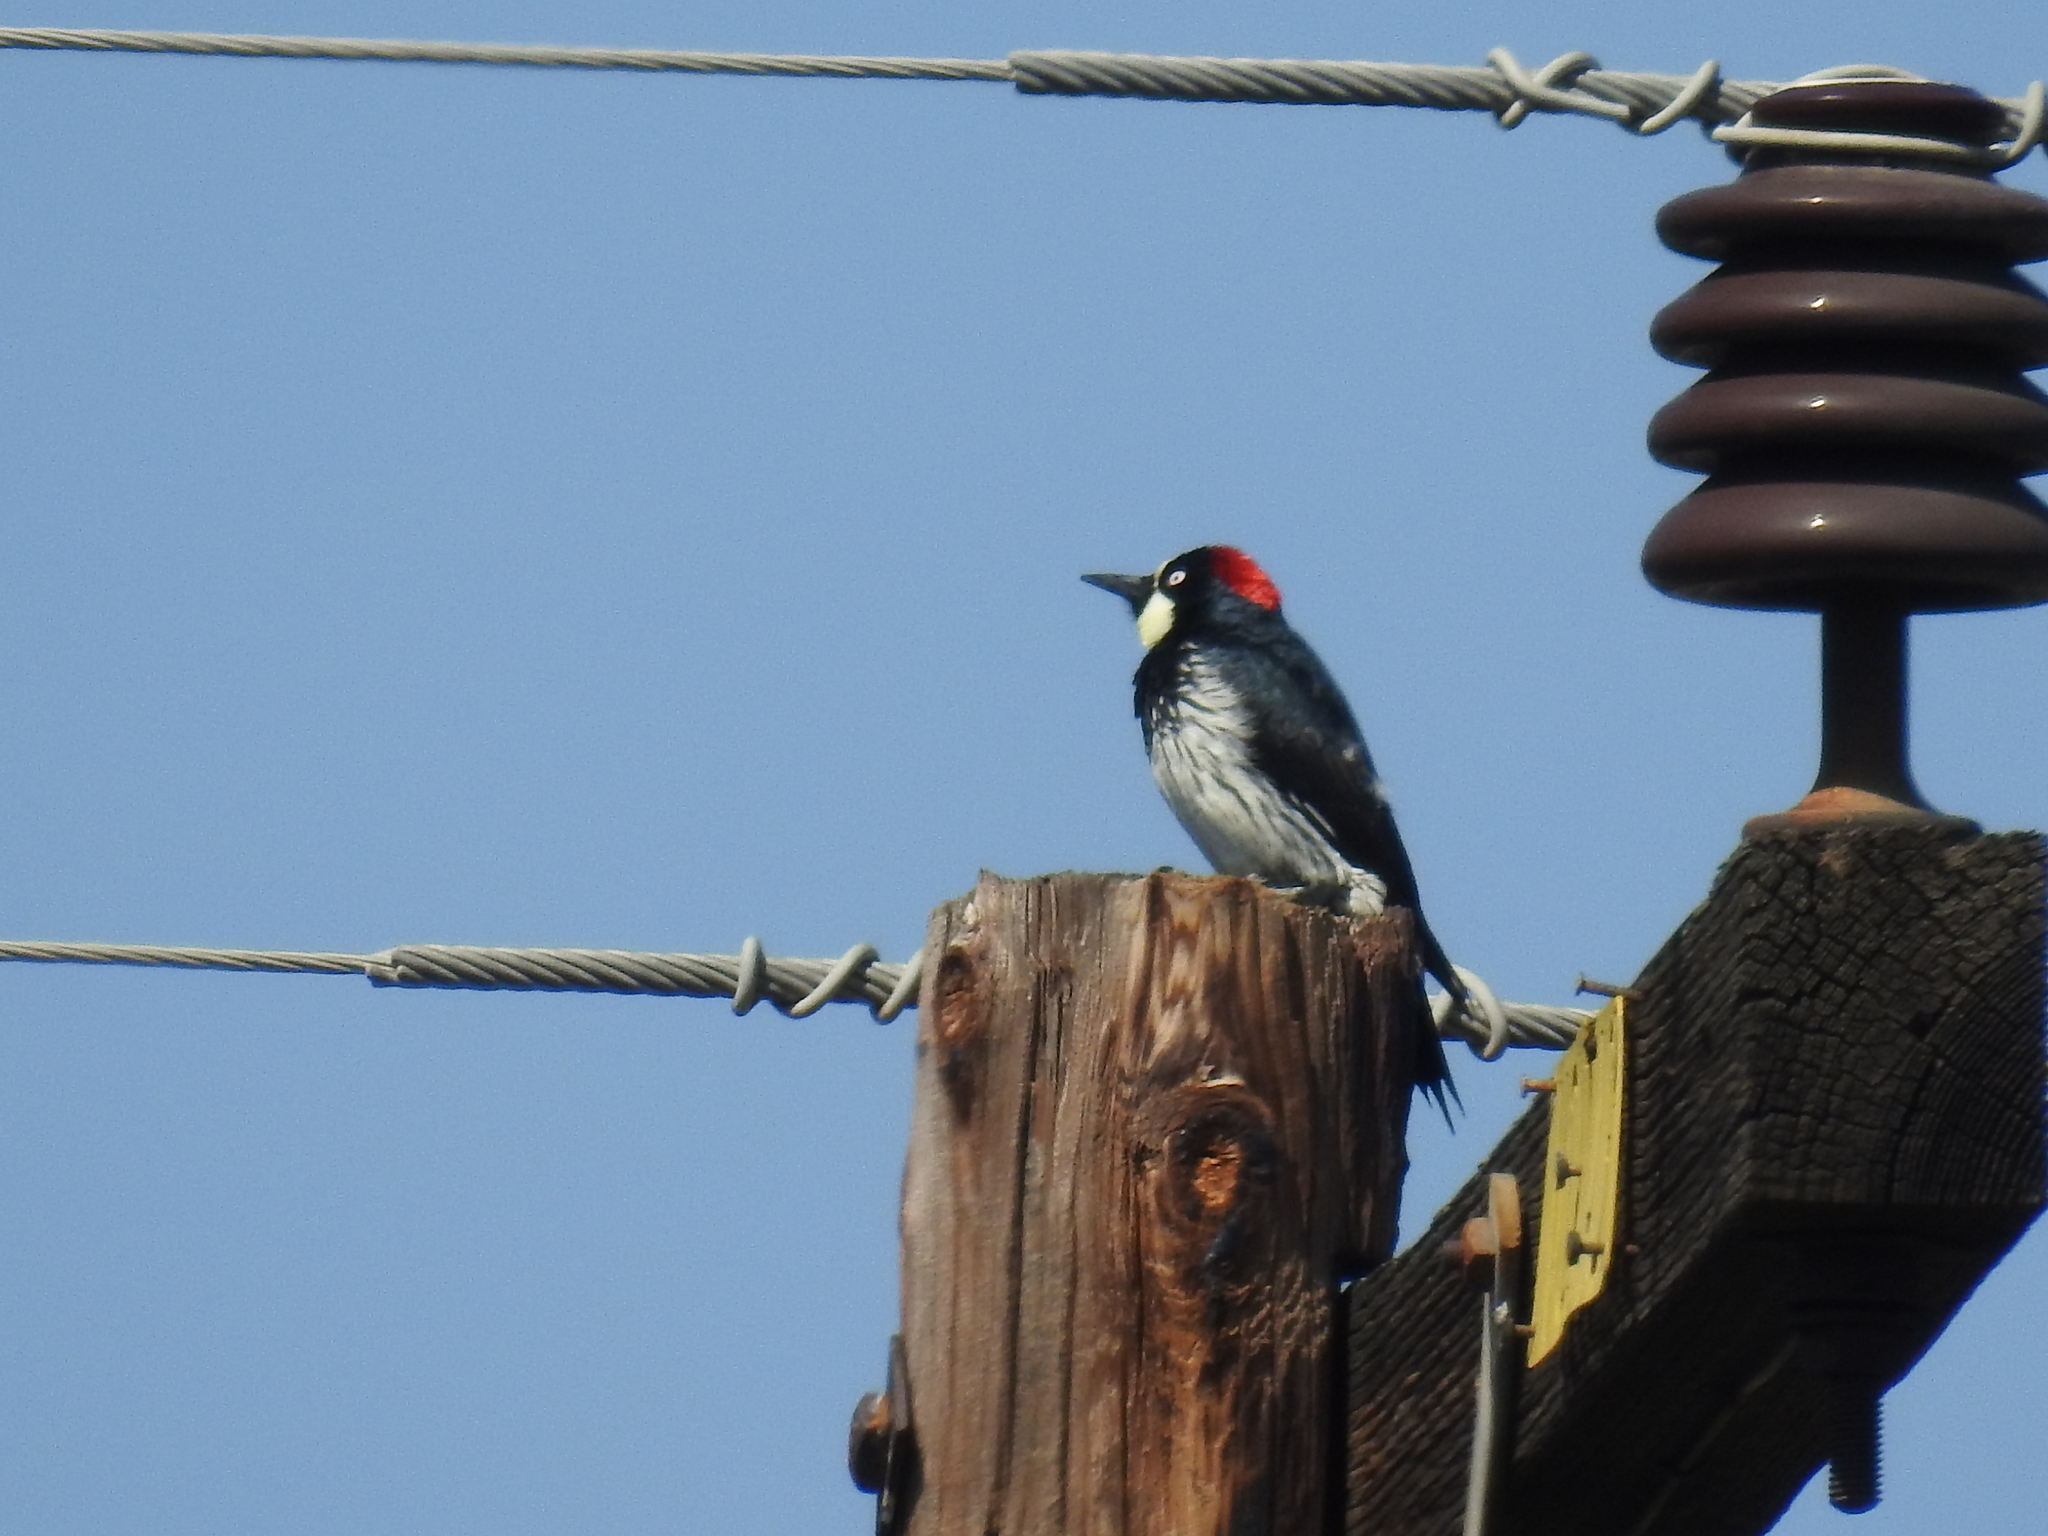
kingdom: Animalia
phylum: Chordata
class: Aves
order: Piciformes
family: Picidae
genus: Melanerpes
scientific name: Melanerpes formicivorus
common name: Acorn woodpecker
